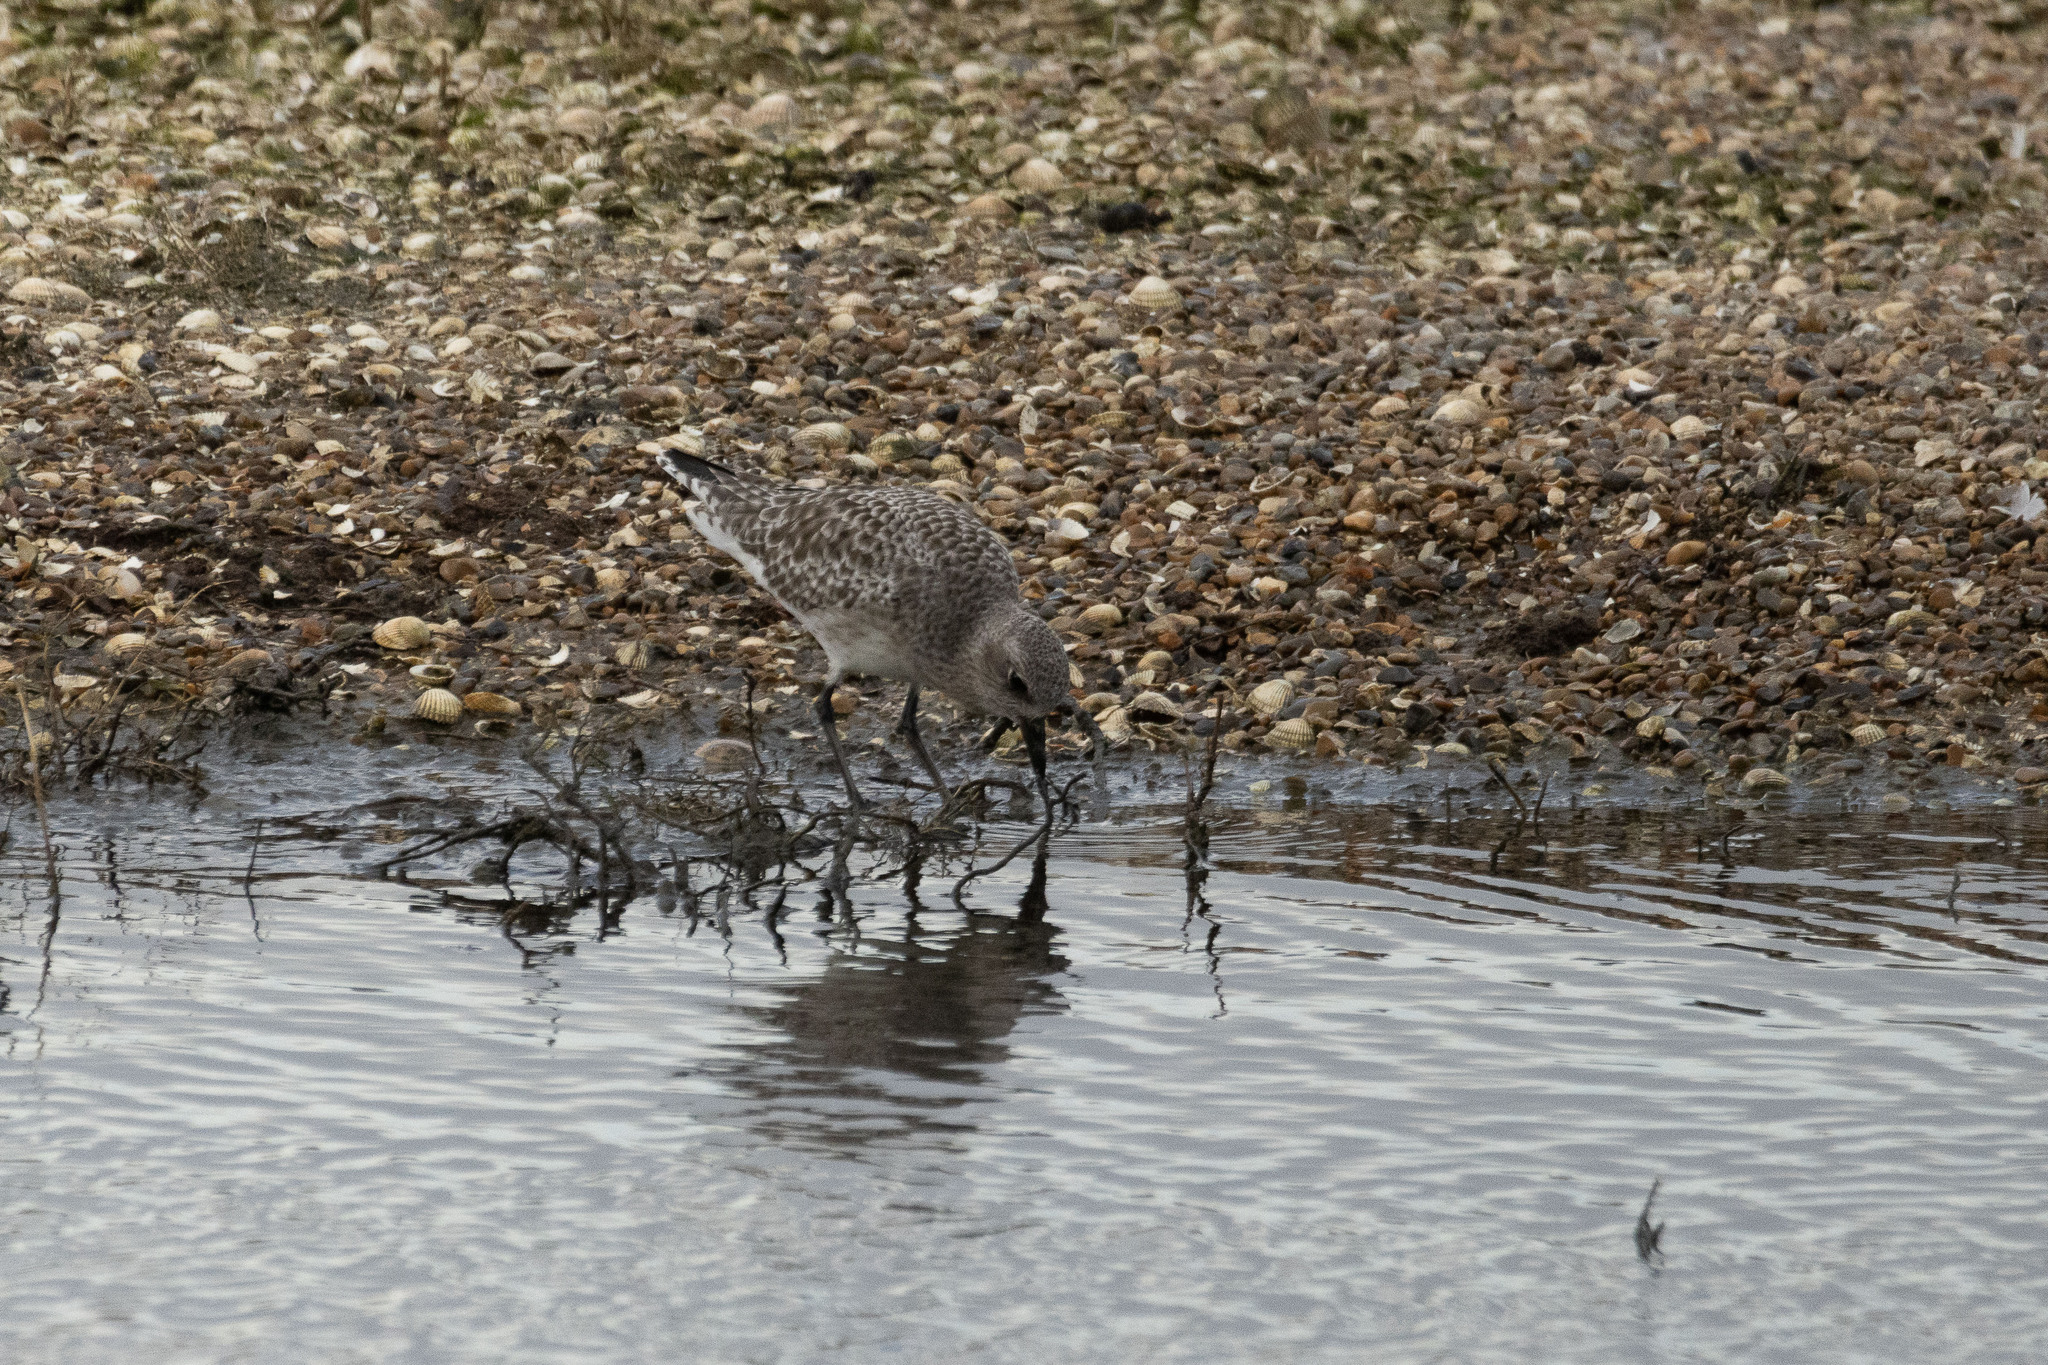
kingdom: Animalia
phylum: Chordata
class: Aves
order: Charadriiformes
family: Charadriidae
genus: Pluvialis
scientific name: Pluvialis squatarola
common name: Grey plover
